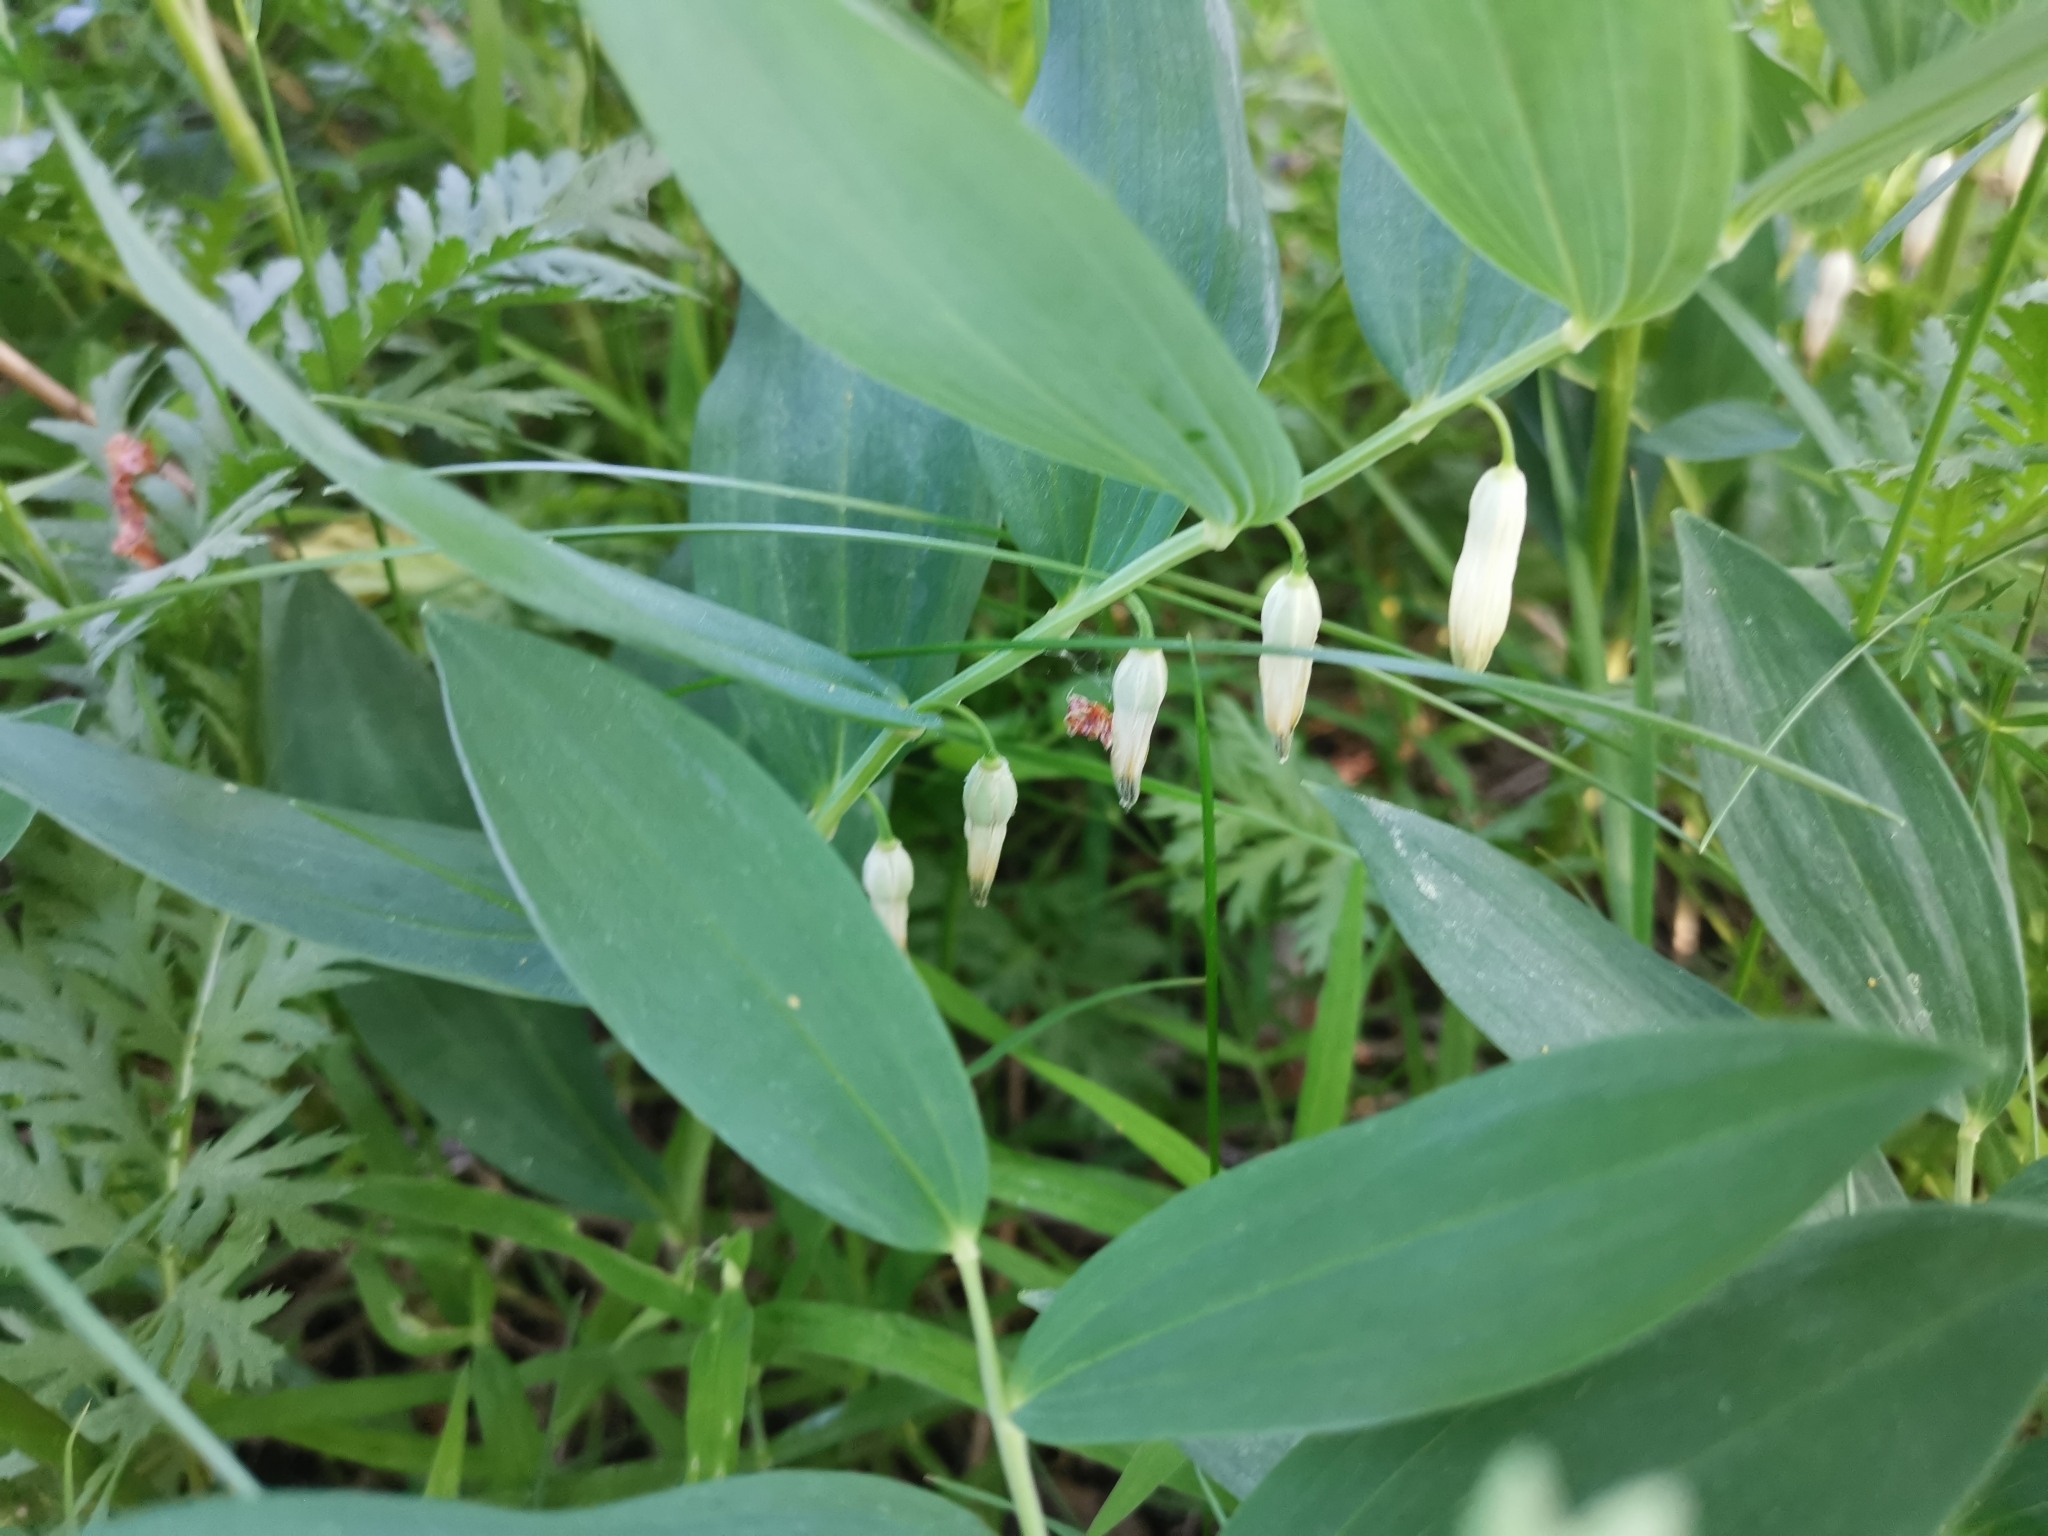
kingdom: Plantae
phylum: Tracheophyta
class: Liliopsida
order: Asparagales
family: Asparagaceae
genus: Polygonatum
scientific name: Polygonatum odoratum
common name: Angular solomon's-seal
